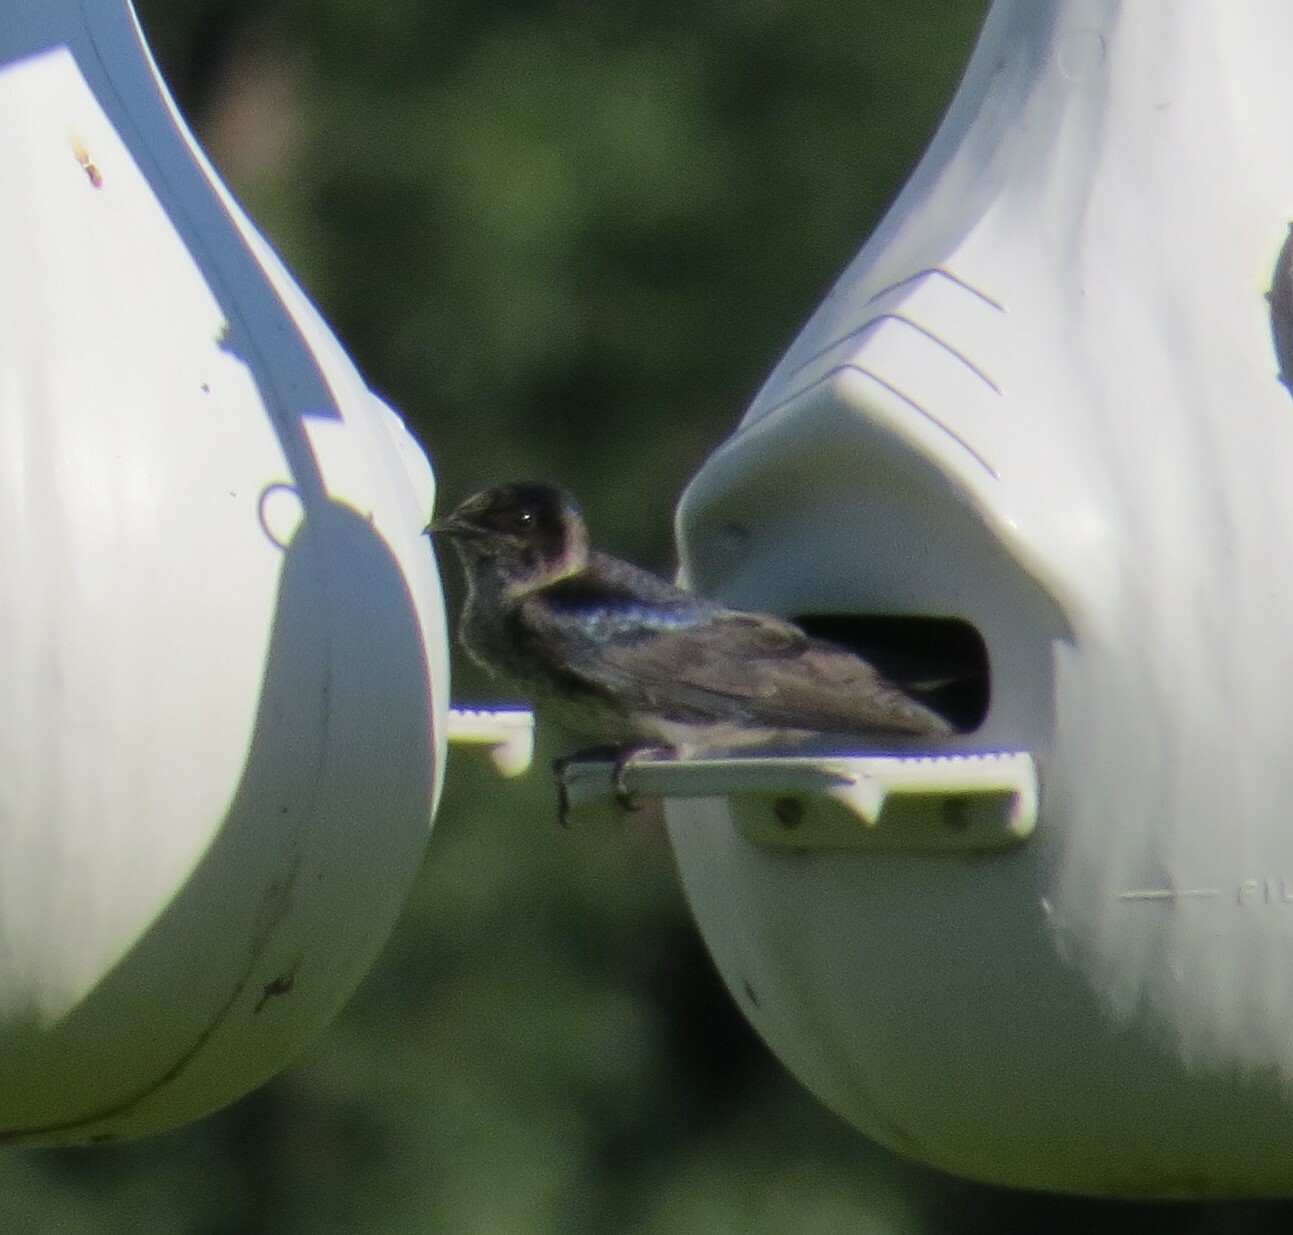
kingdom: Animalia
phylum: Chordata
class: Aves
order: Passeriformes
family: Hirundinidae
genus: Progne
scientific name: Progne subis
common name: Purple martin
